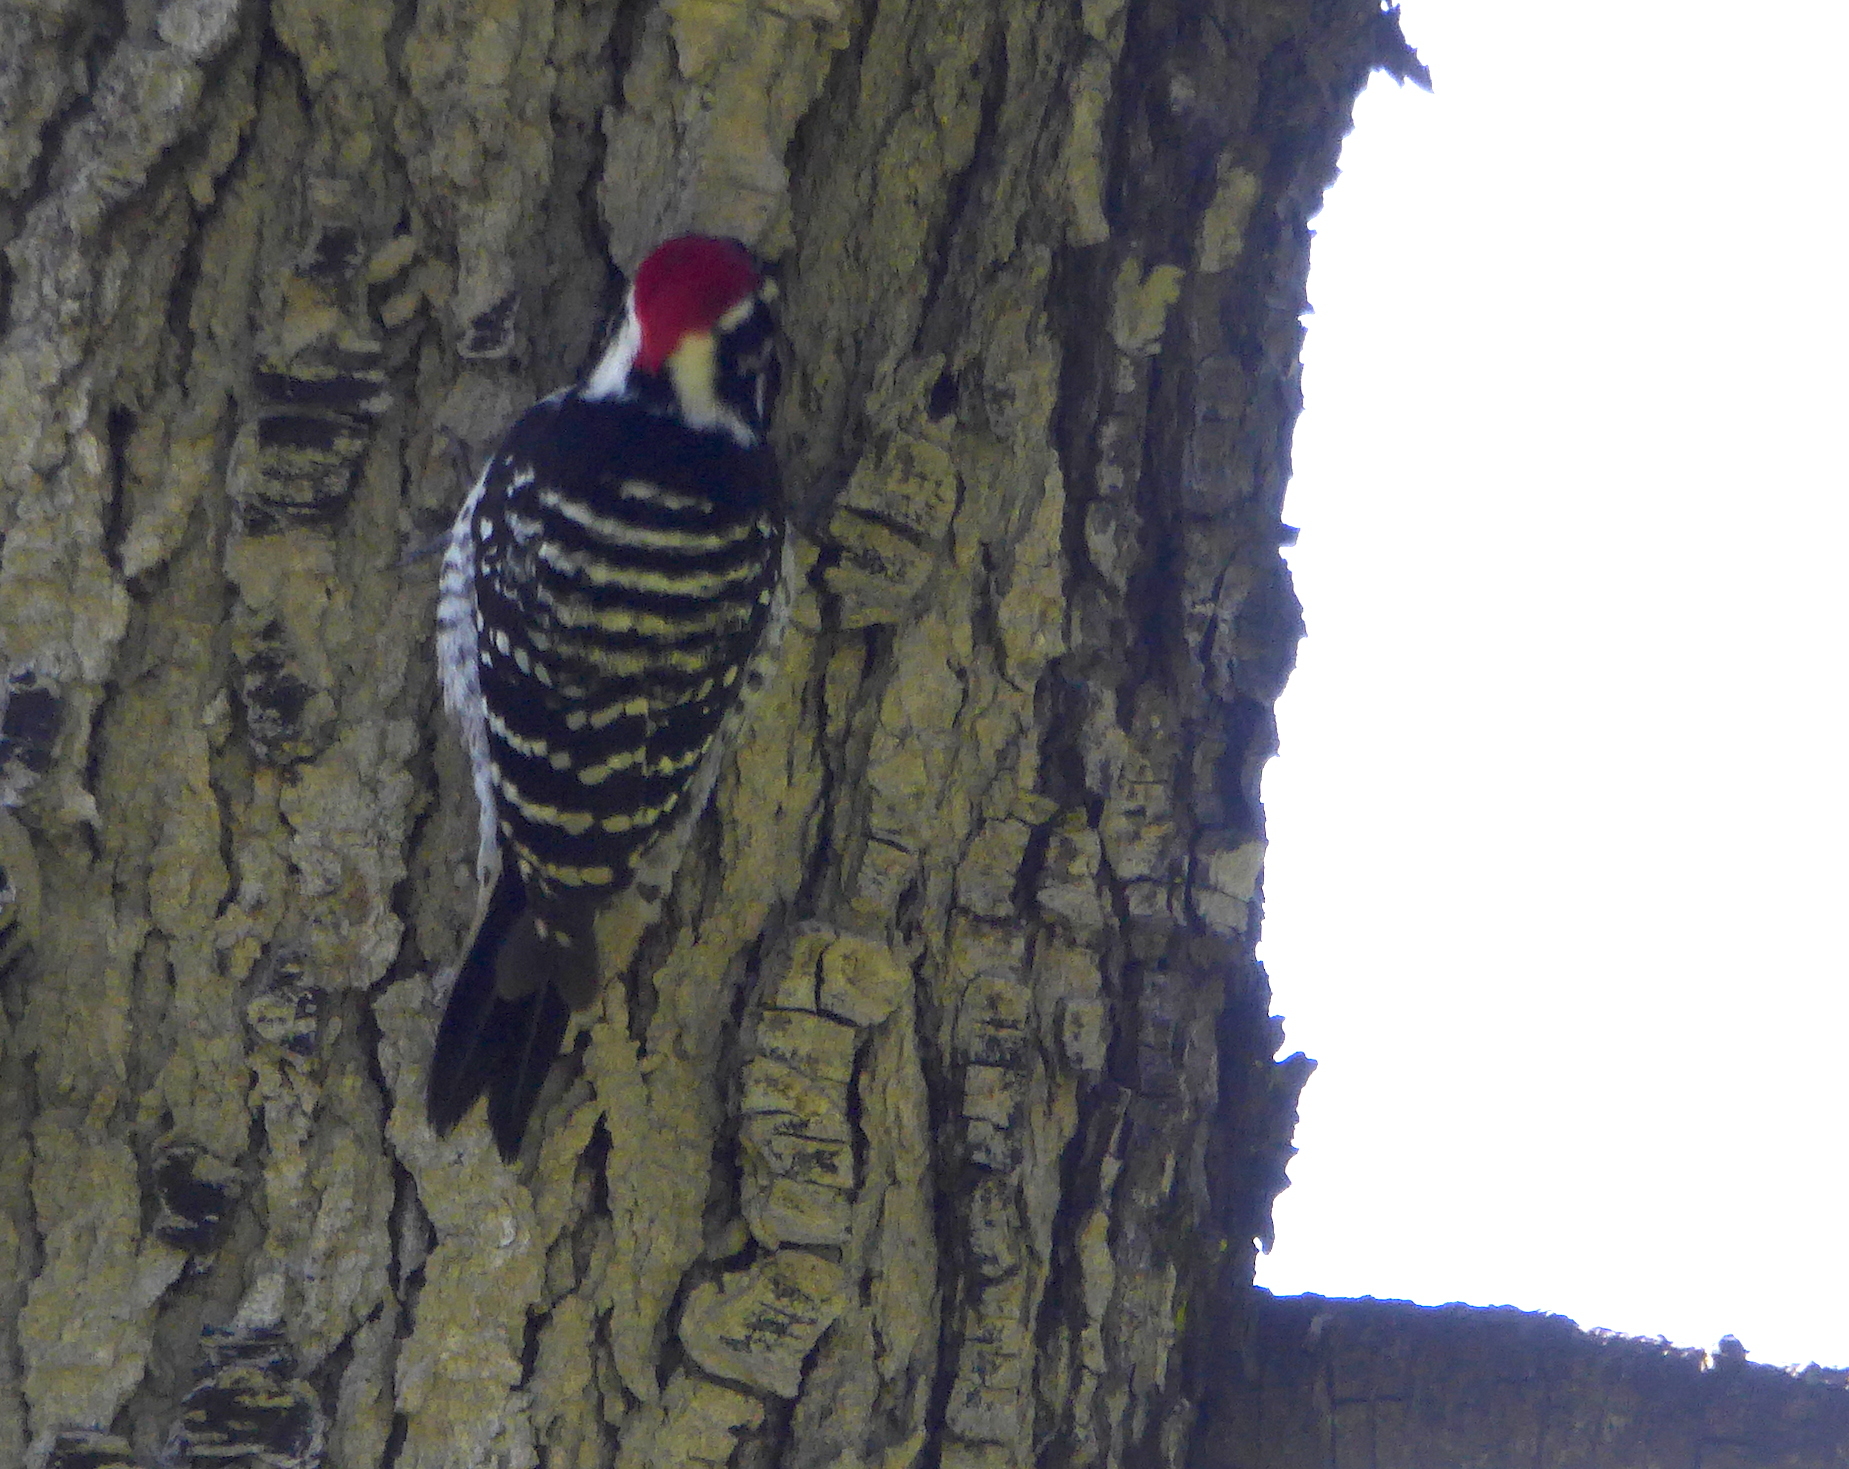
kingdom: Animalia
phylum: Chordata
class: Aves
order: Piciformes
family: Picidae
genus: Dryobates
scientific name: Dryobates nuttallii
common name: Nuttall's woodpecker
